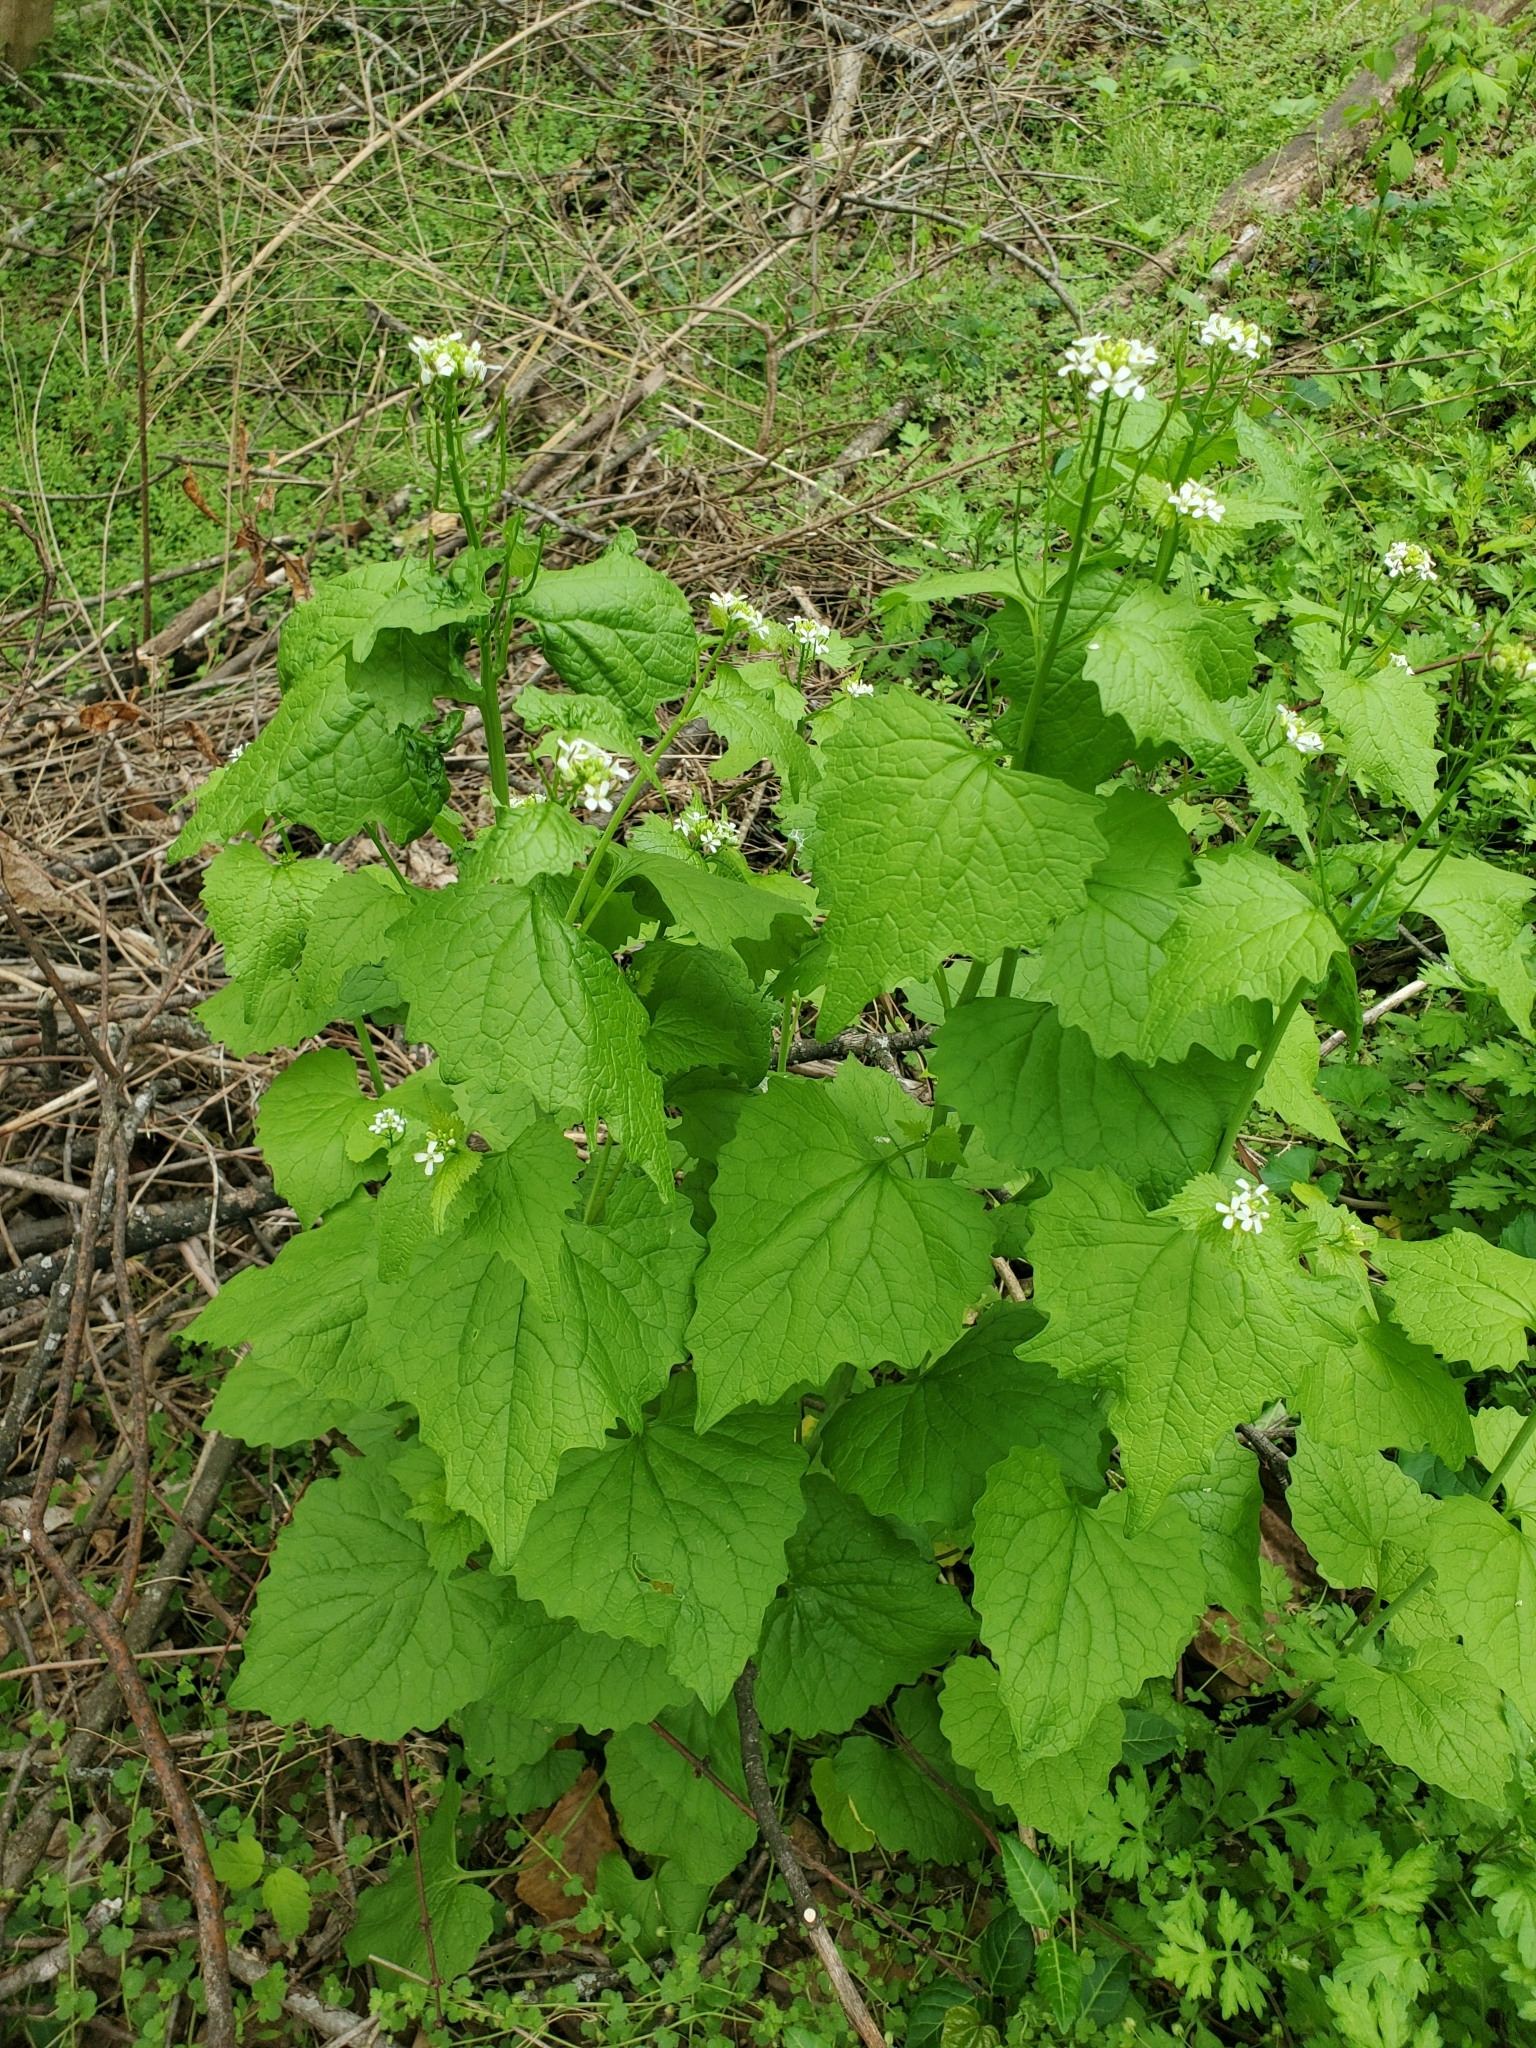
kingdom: Plantae
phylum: Tracheophyta
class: Magnoliopsida
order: Brassicales
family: Brassicaceae
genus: Alliaria
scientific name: Alliaria petiolata
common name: Garlic mustard
